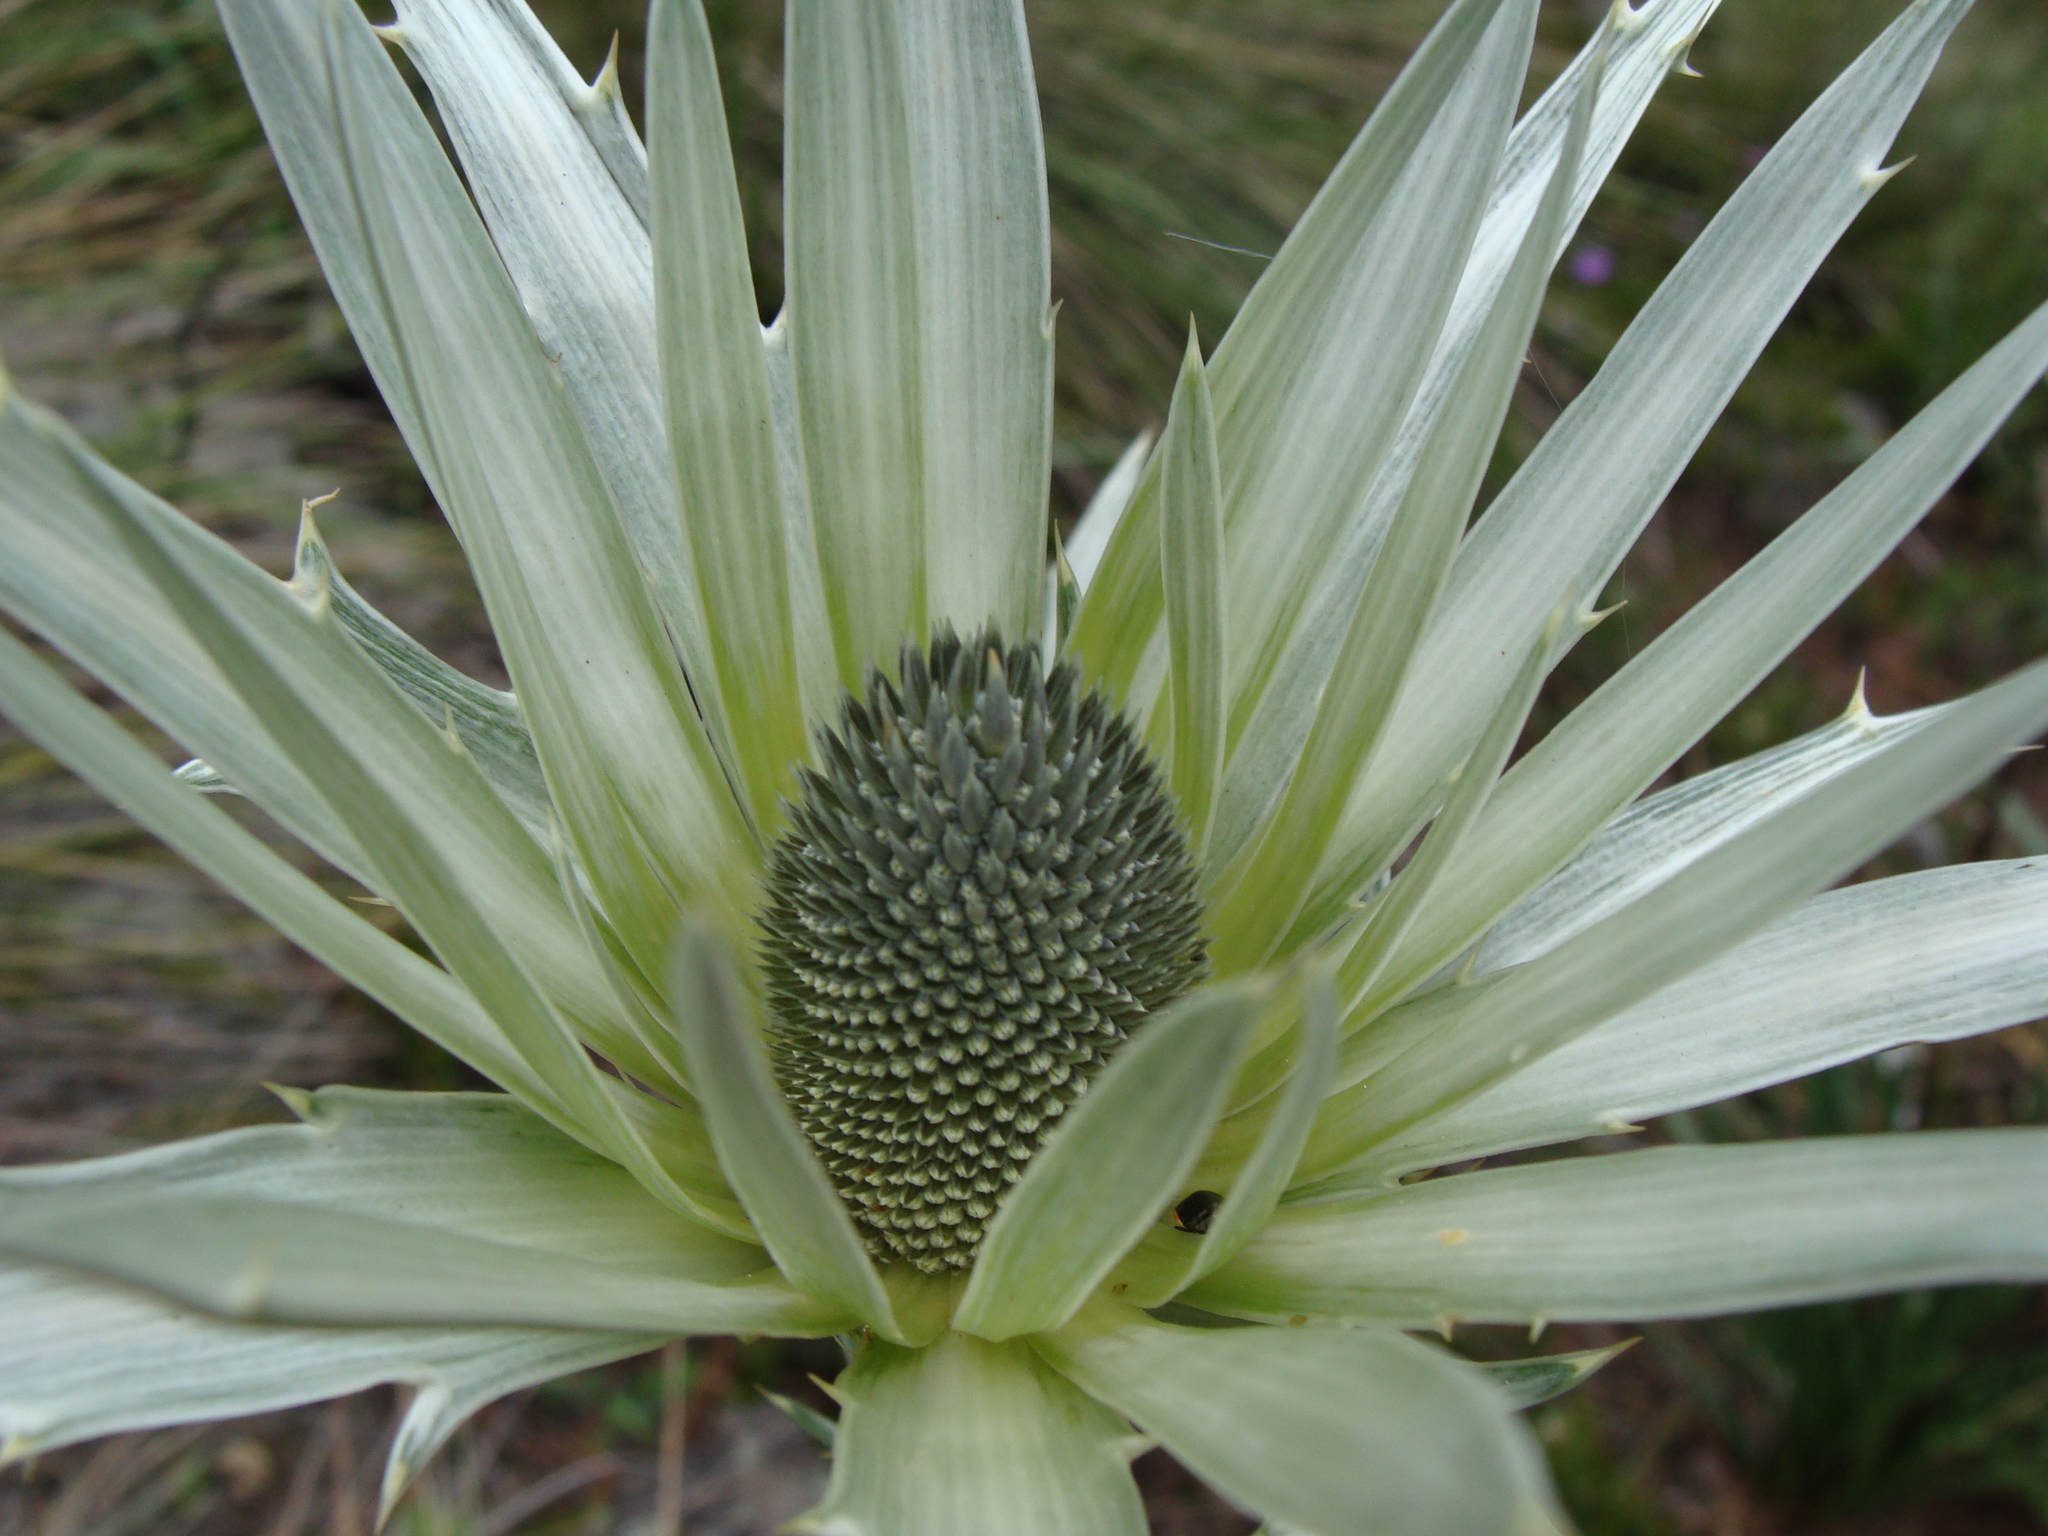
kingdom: Plantae
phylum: Tracheophyta
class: Magnoliopsida
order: Apiales
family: Apiaceae
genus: Eryngium
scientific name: Eryngium proteiflorum
